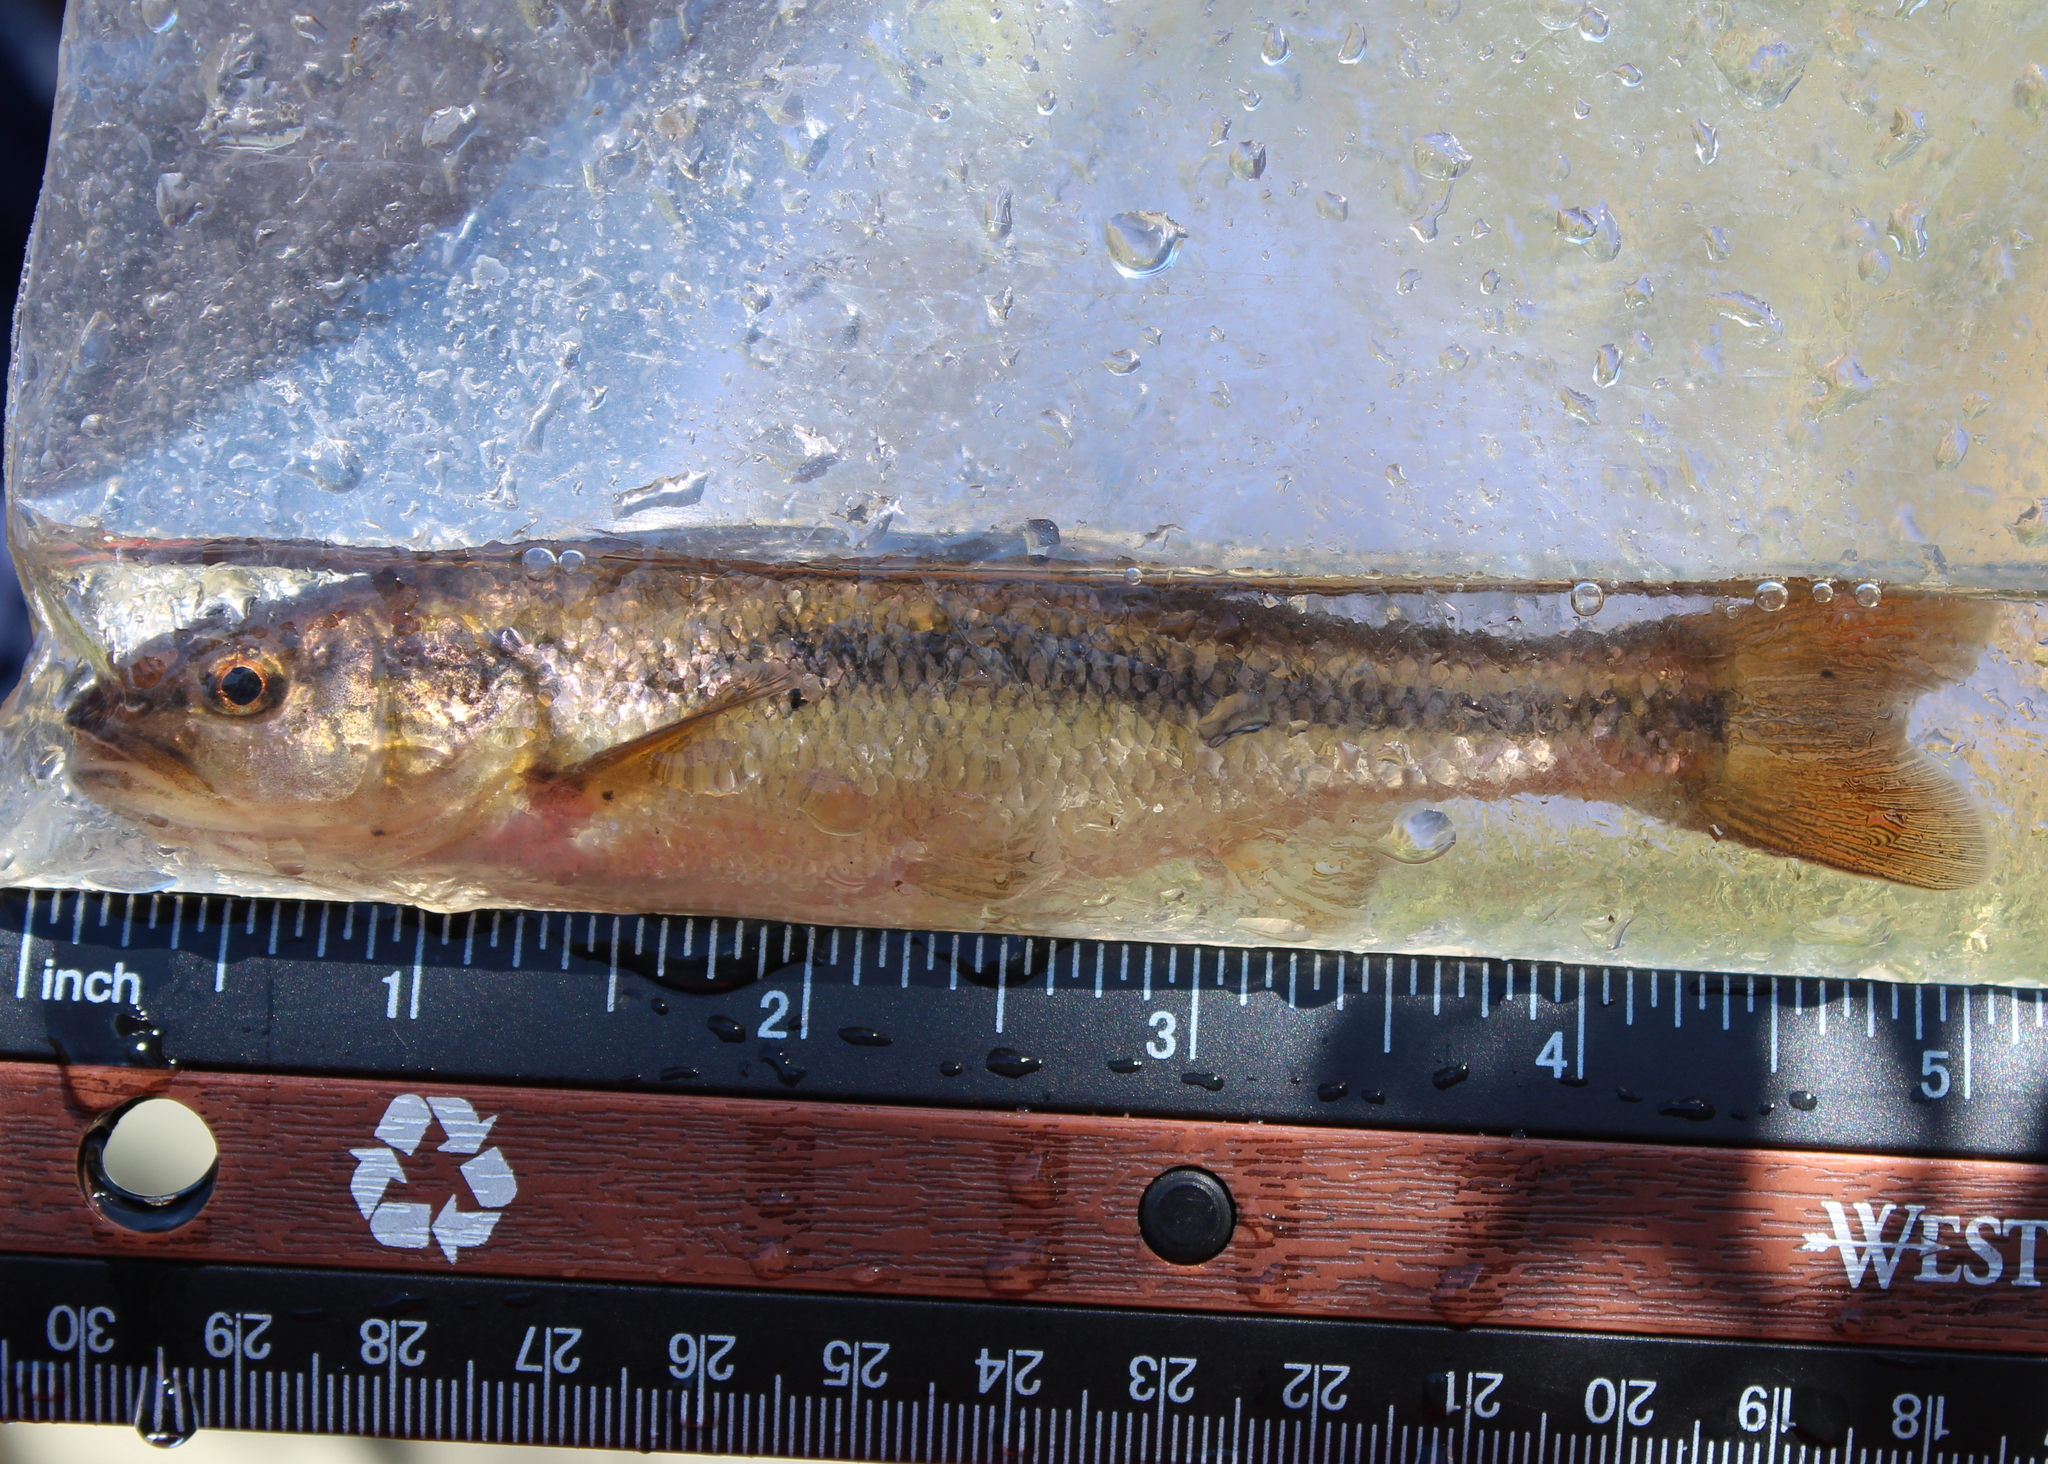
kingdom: Animalia
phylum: Chordata
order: Cypriniformes
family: Cyprinidae
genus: Semotilus
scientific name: Semotilus atromaculatus
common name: Creek chub
